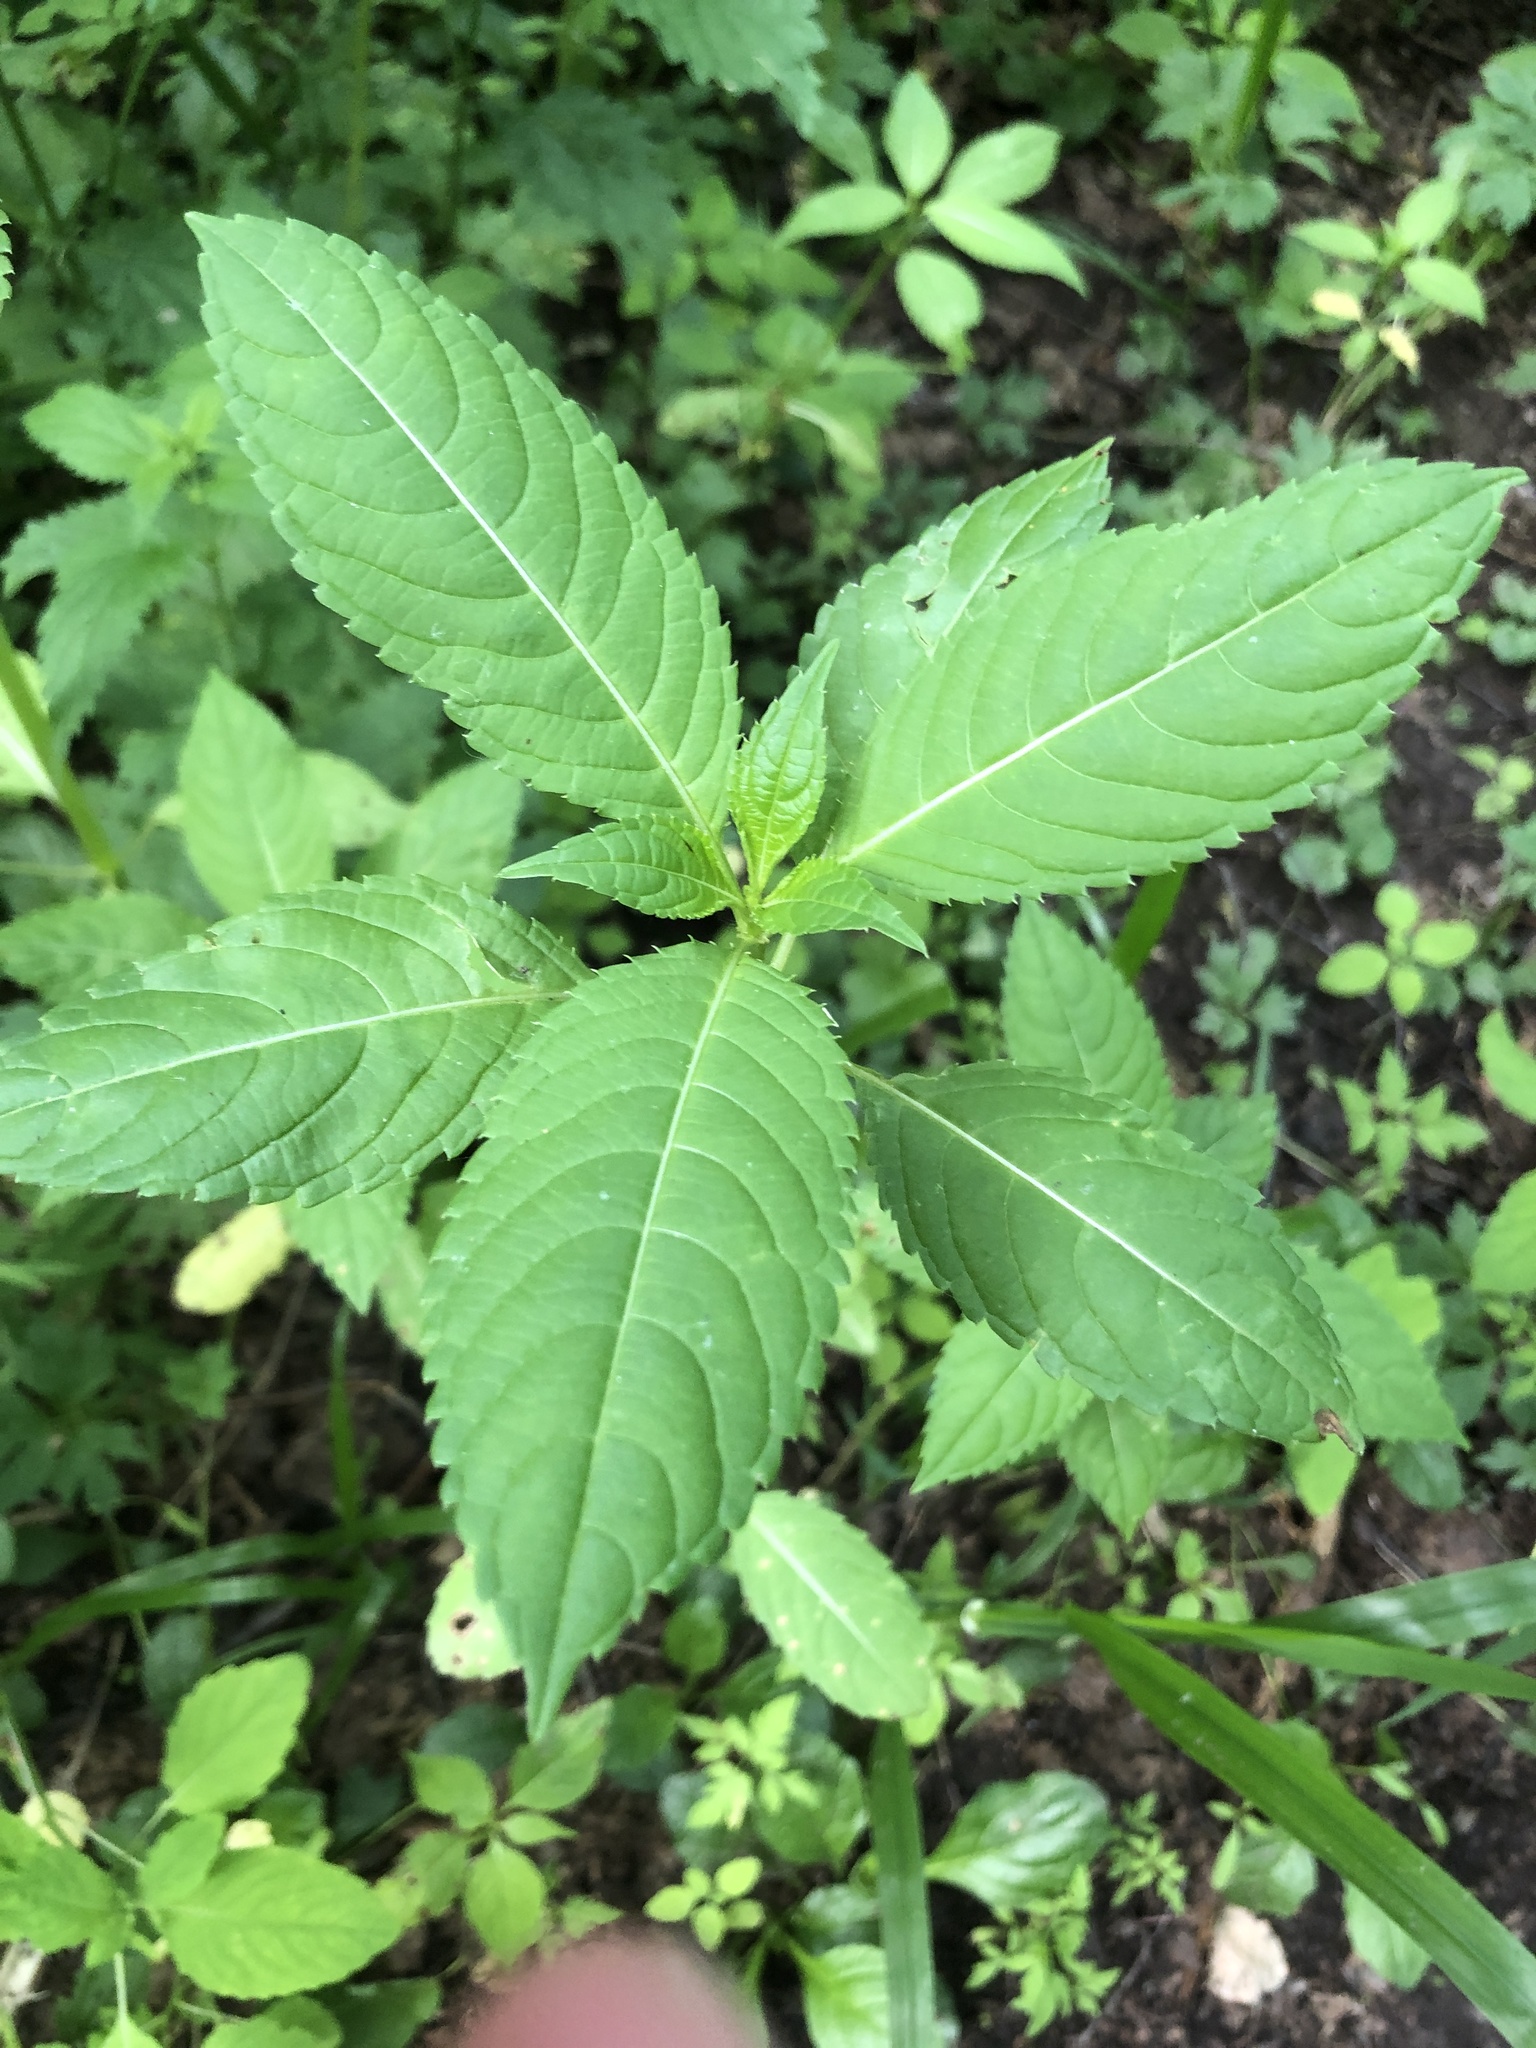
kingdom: Plantae
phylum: Tracheophyta
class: Magnoliopsida
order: Ericales
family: Balsaminaceae
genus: Impatiens
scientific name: Impatiens glandulifera
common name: Himalayan balsam
